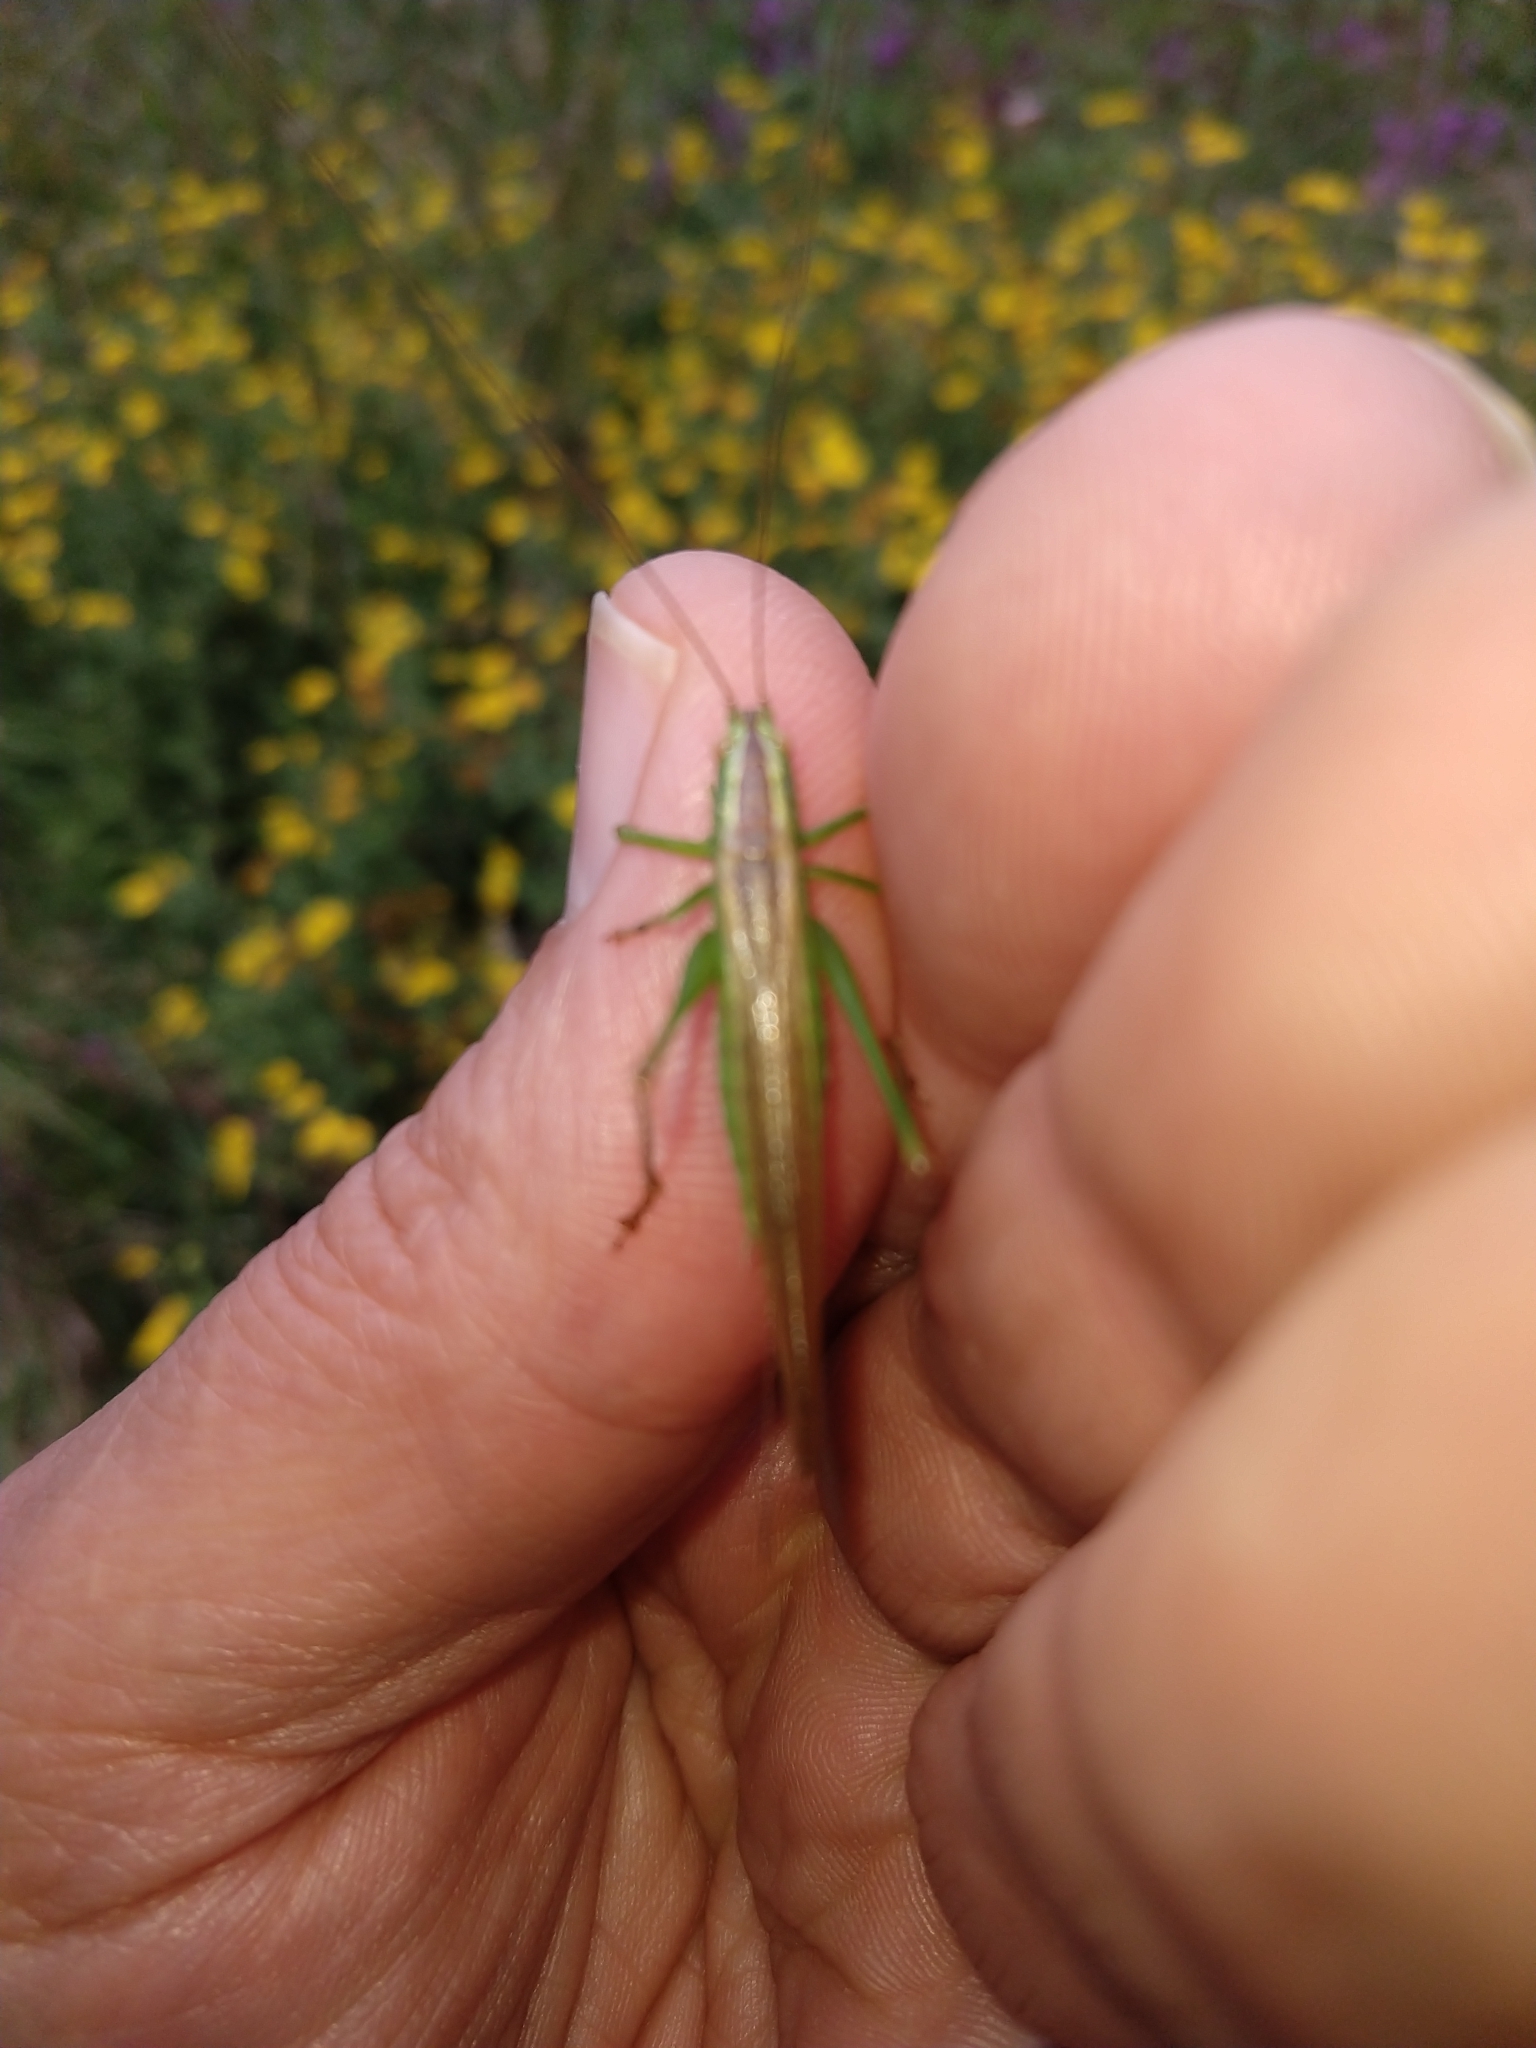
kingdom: Animalia
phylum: Arthropoda
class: Insecta
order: Orthoptera
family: Tettigoniidae
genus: Conocephalus
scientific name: Conocephalus fuscus
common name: Long-winged conehead
